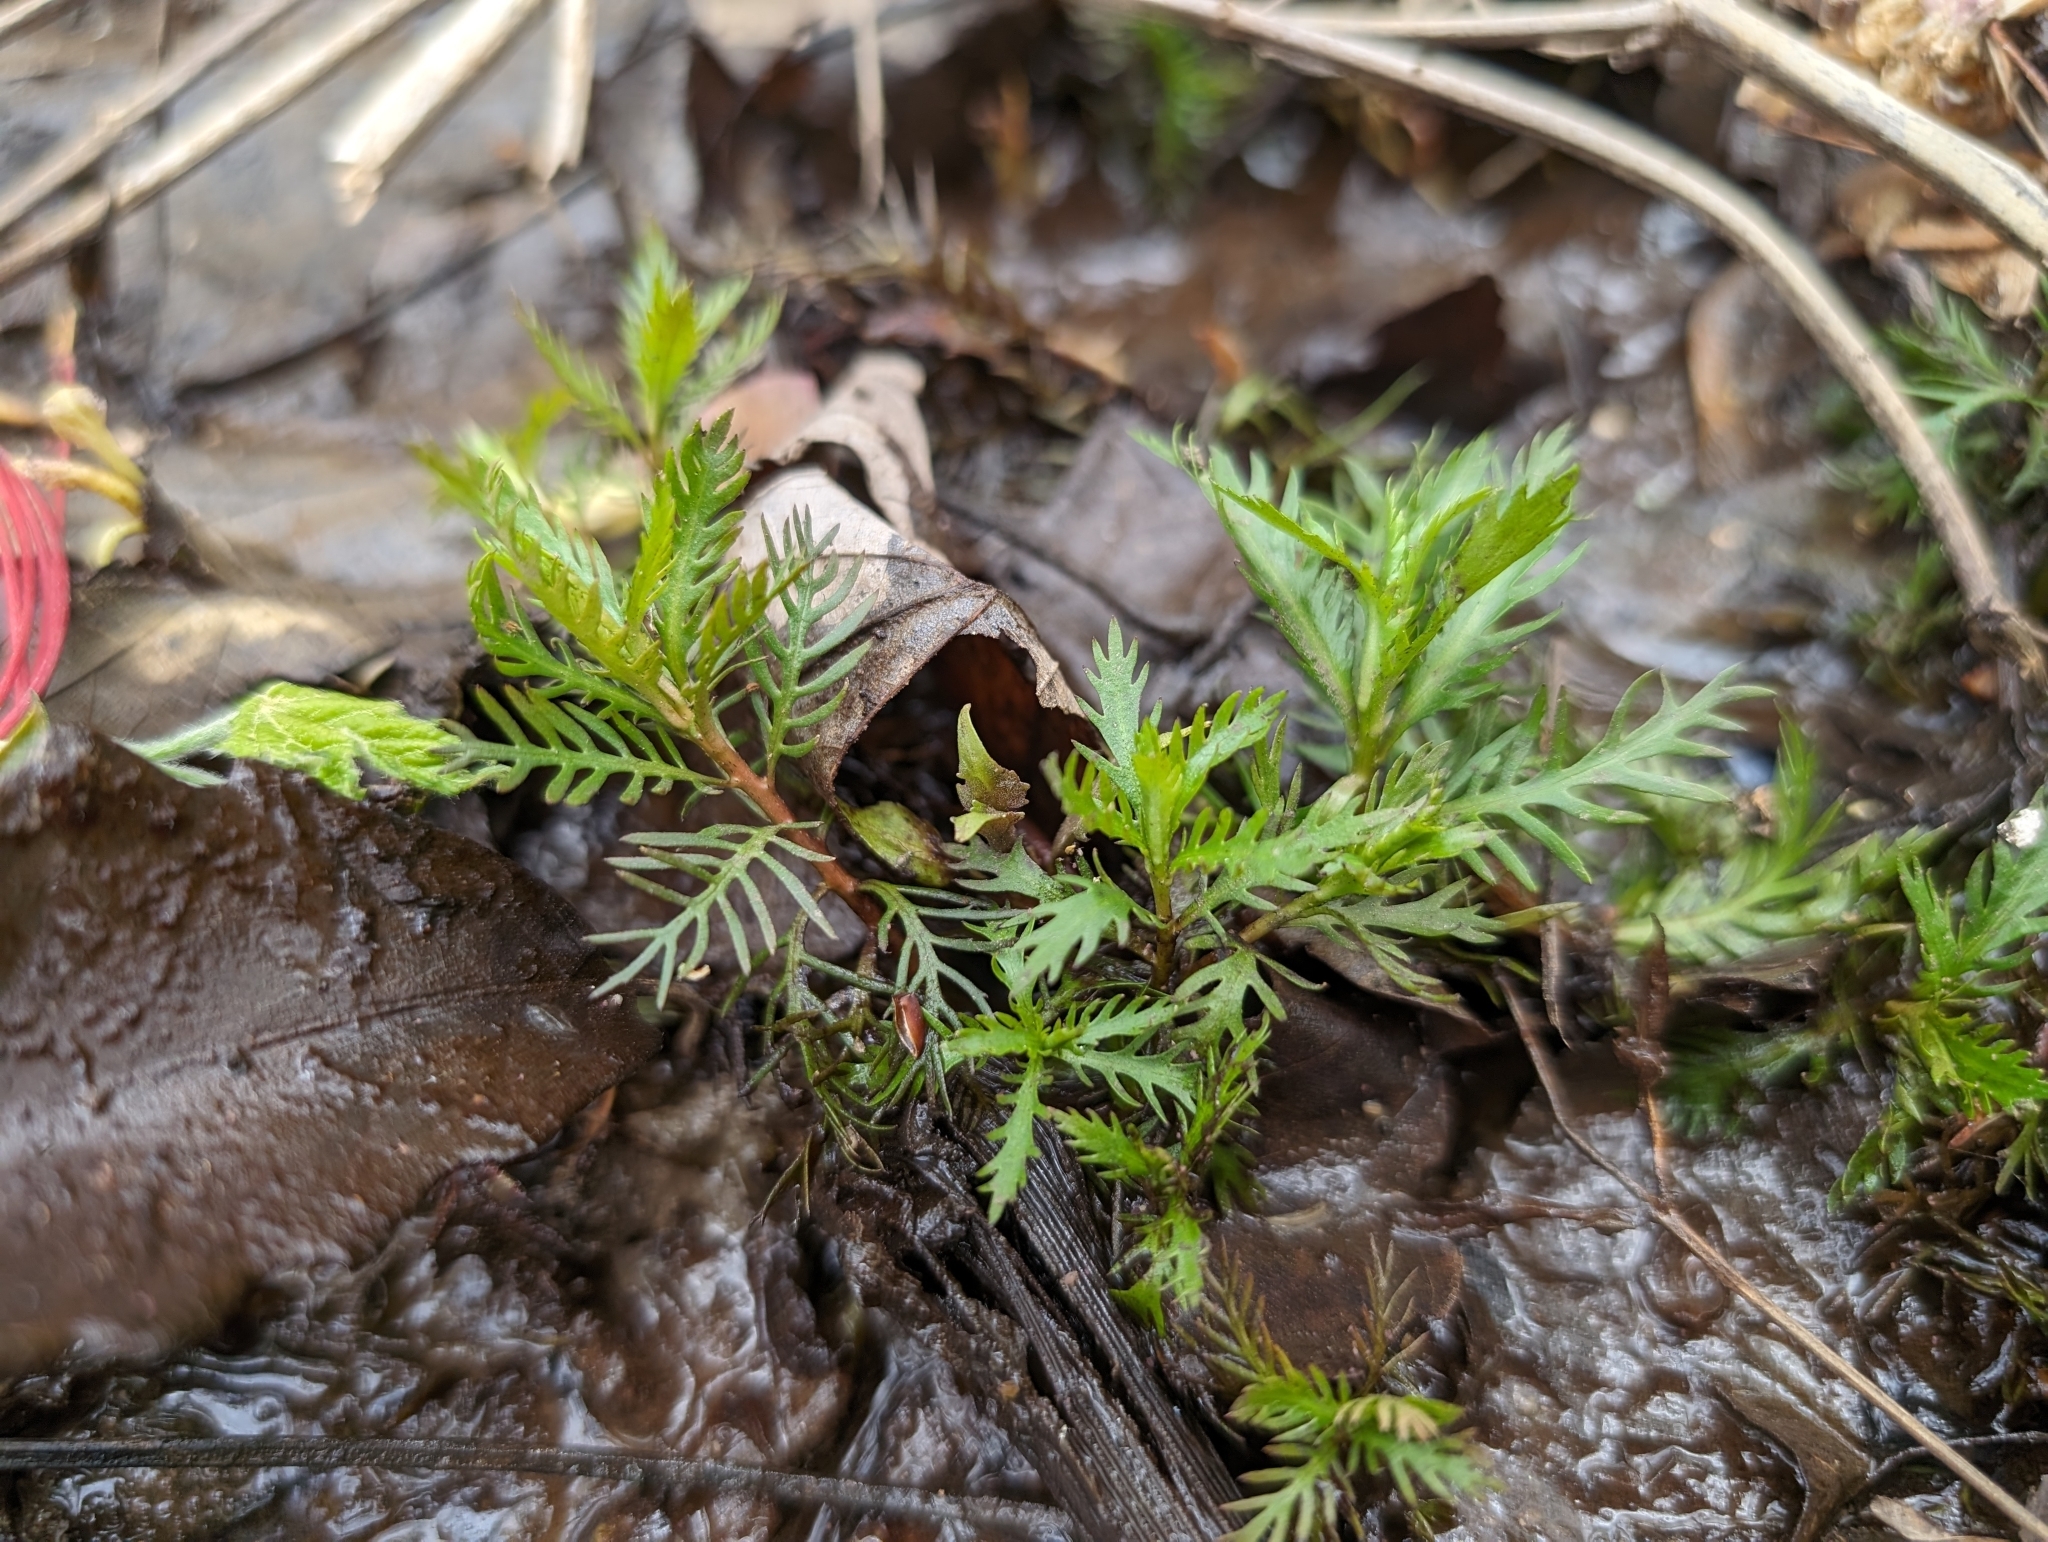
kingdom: Plantae
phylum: Tracheophyta
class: Magnoliopsida
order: Saxifragales
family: Haloragaceae
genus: Proserpinaca
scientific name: Proserpinaca palustris
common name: Marsh mermaidweed
